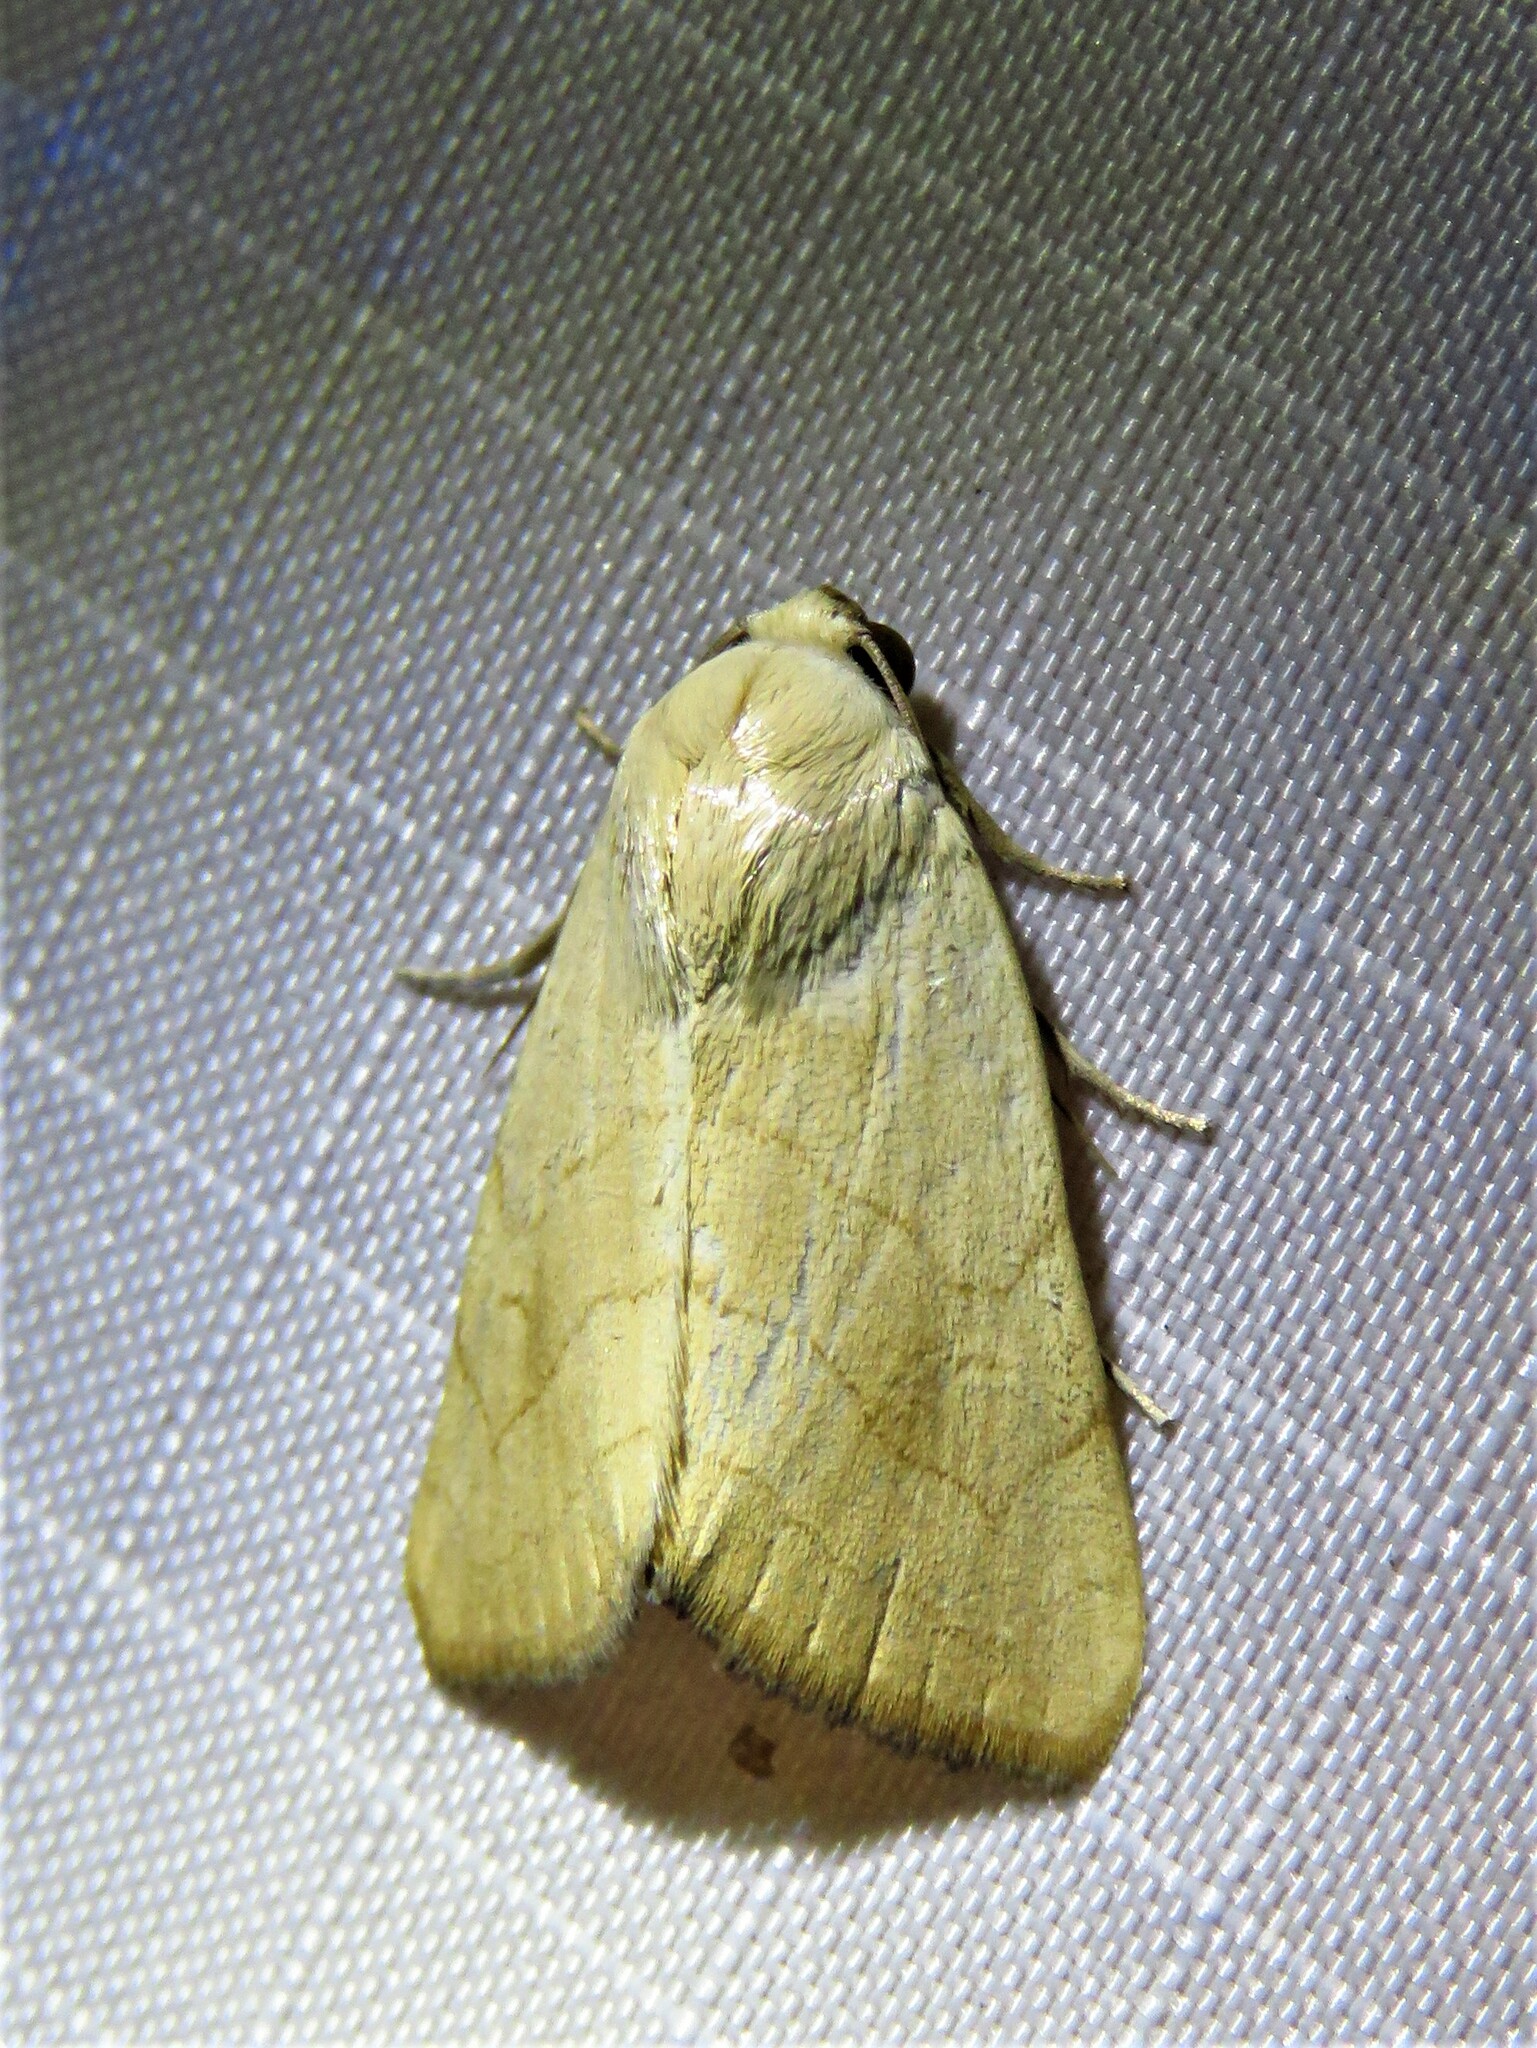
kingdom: Animalia
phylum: Arthropoda
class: Insecta
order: Lepidoptera
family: Noctuidae
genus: Bagisara
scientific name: Bagisara buxea
